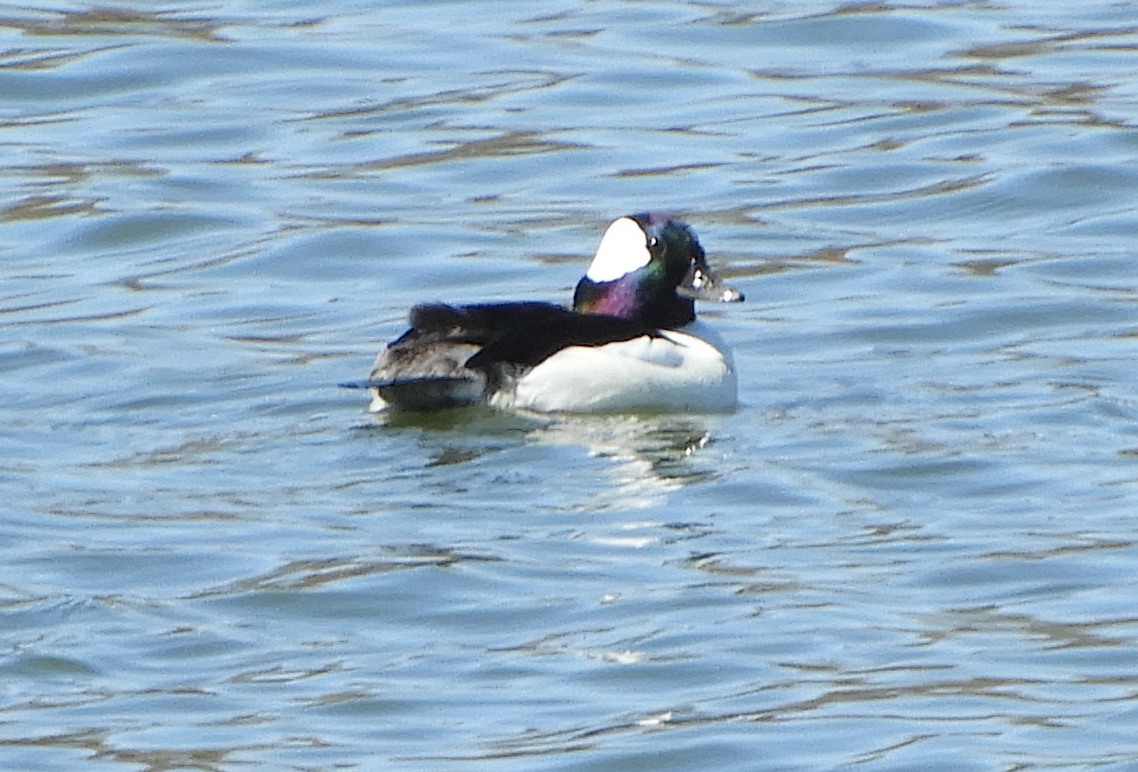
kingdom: Animalia
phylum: Chordata
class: Aves
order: Anseriformes
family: Anatidae
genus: Bucephala
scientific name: Bucephala albeola
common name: Bufflehead
